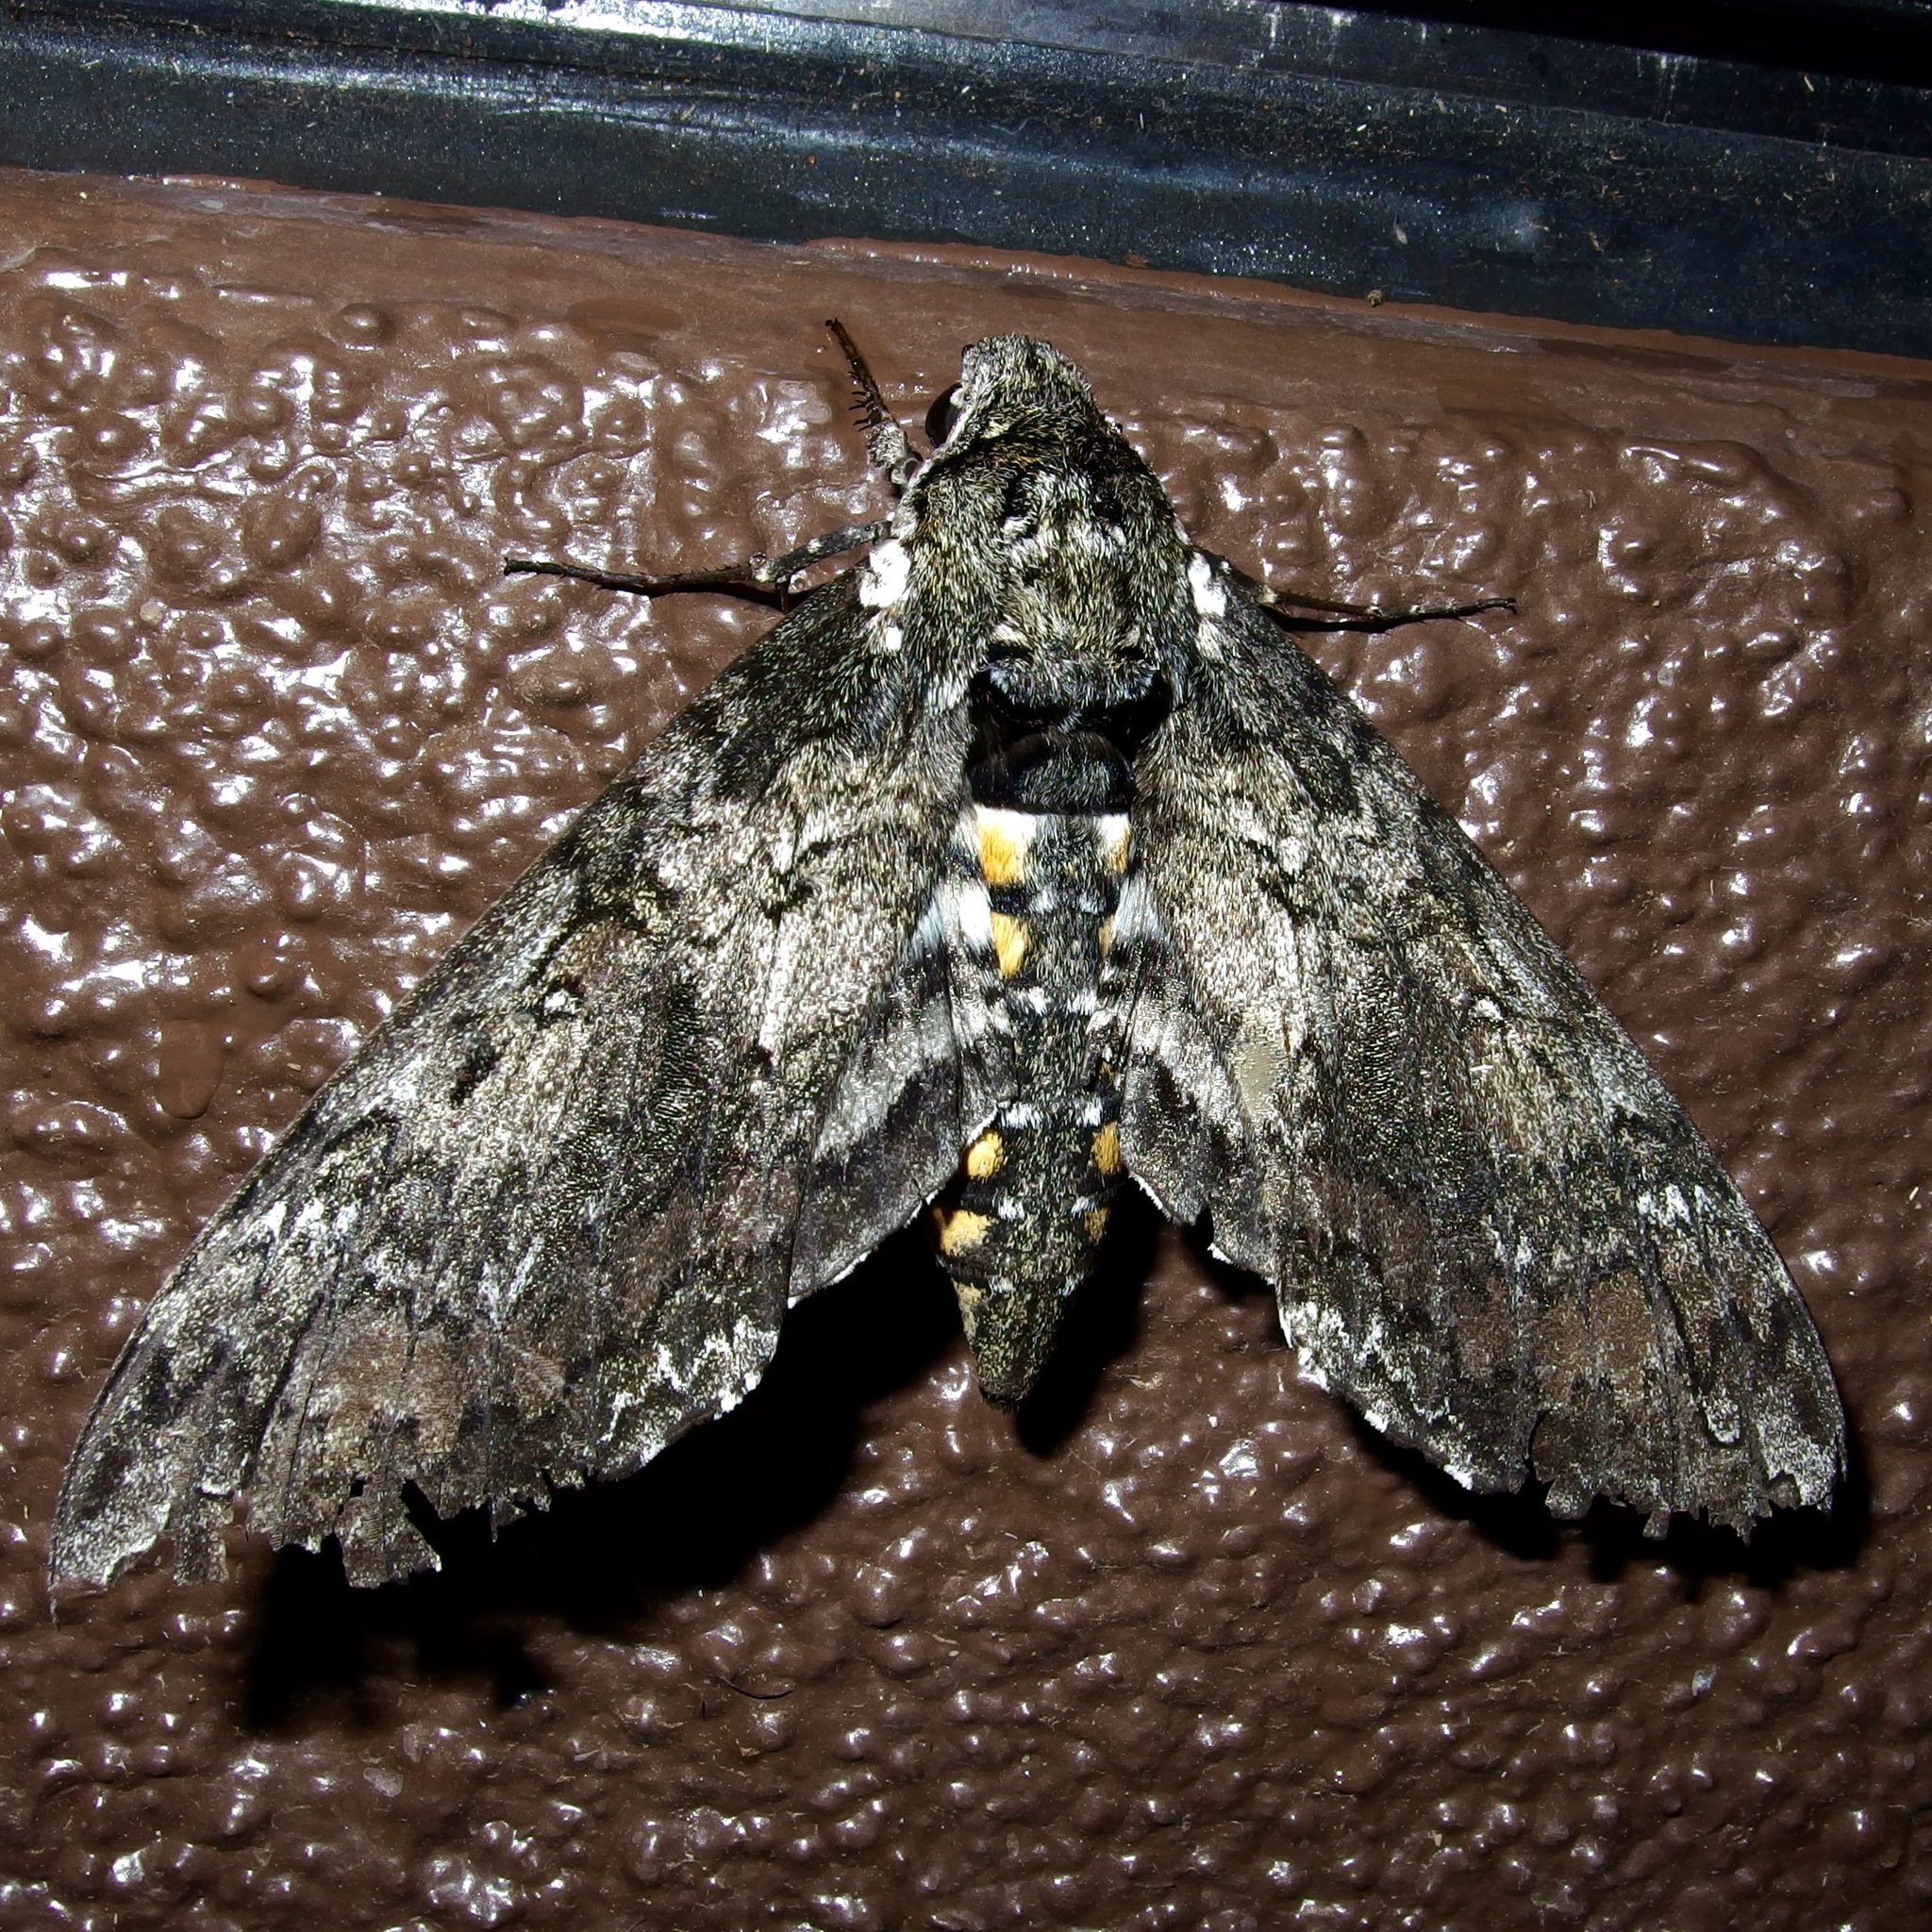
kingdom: Animalia
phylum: Arthropoda
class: Insecta
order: Lepidoptera
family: Sphingidae
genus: Manduca
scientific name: Manduca sexta
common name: Carolina sphinx
